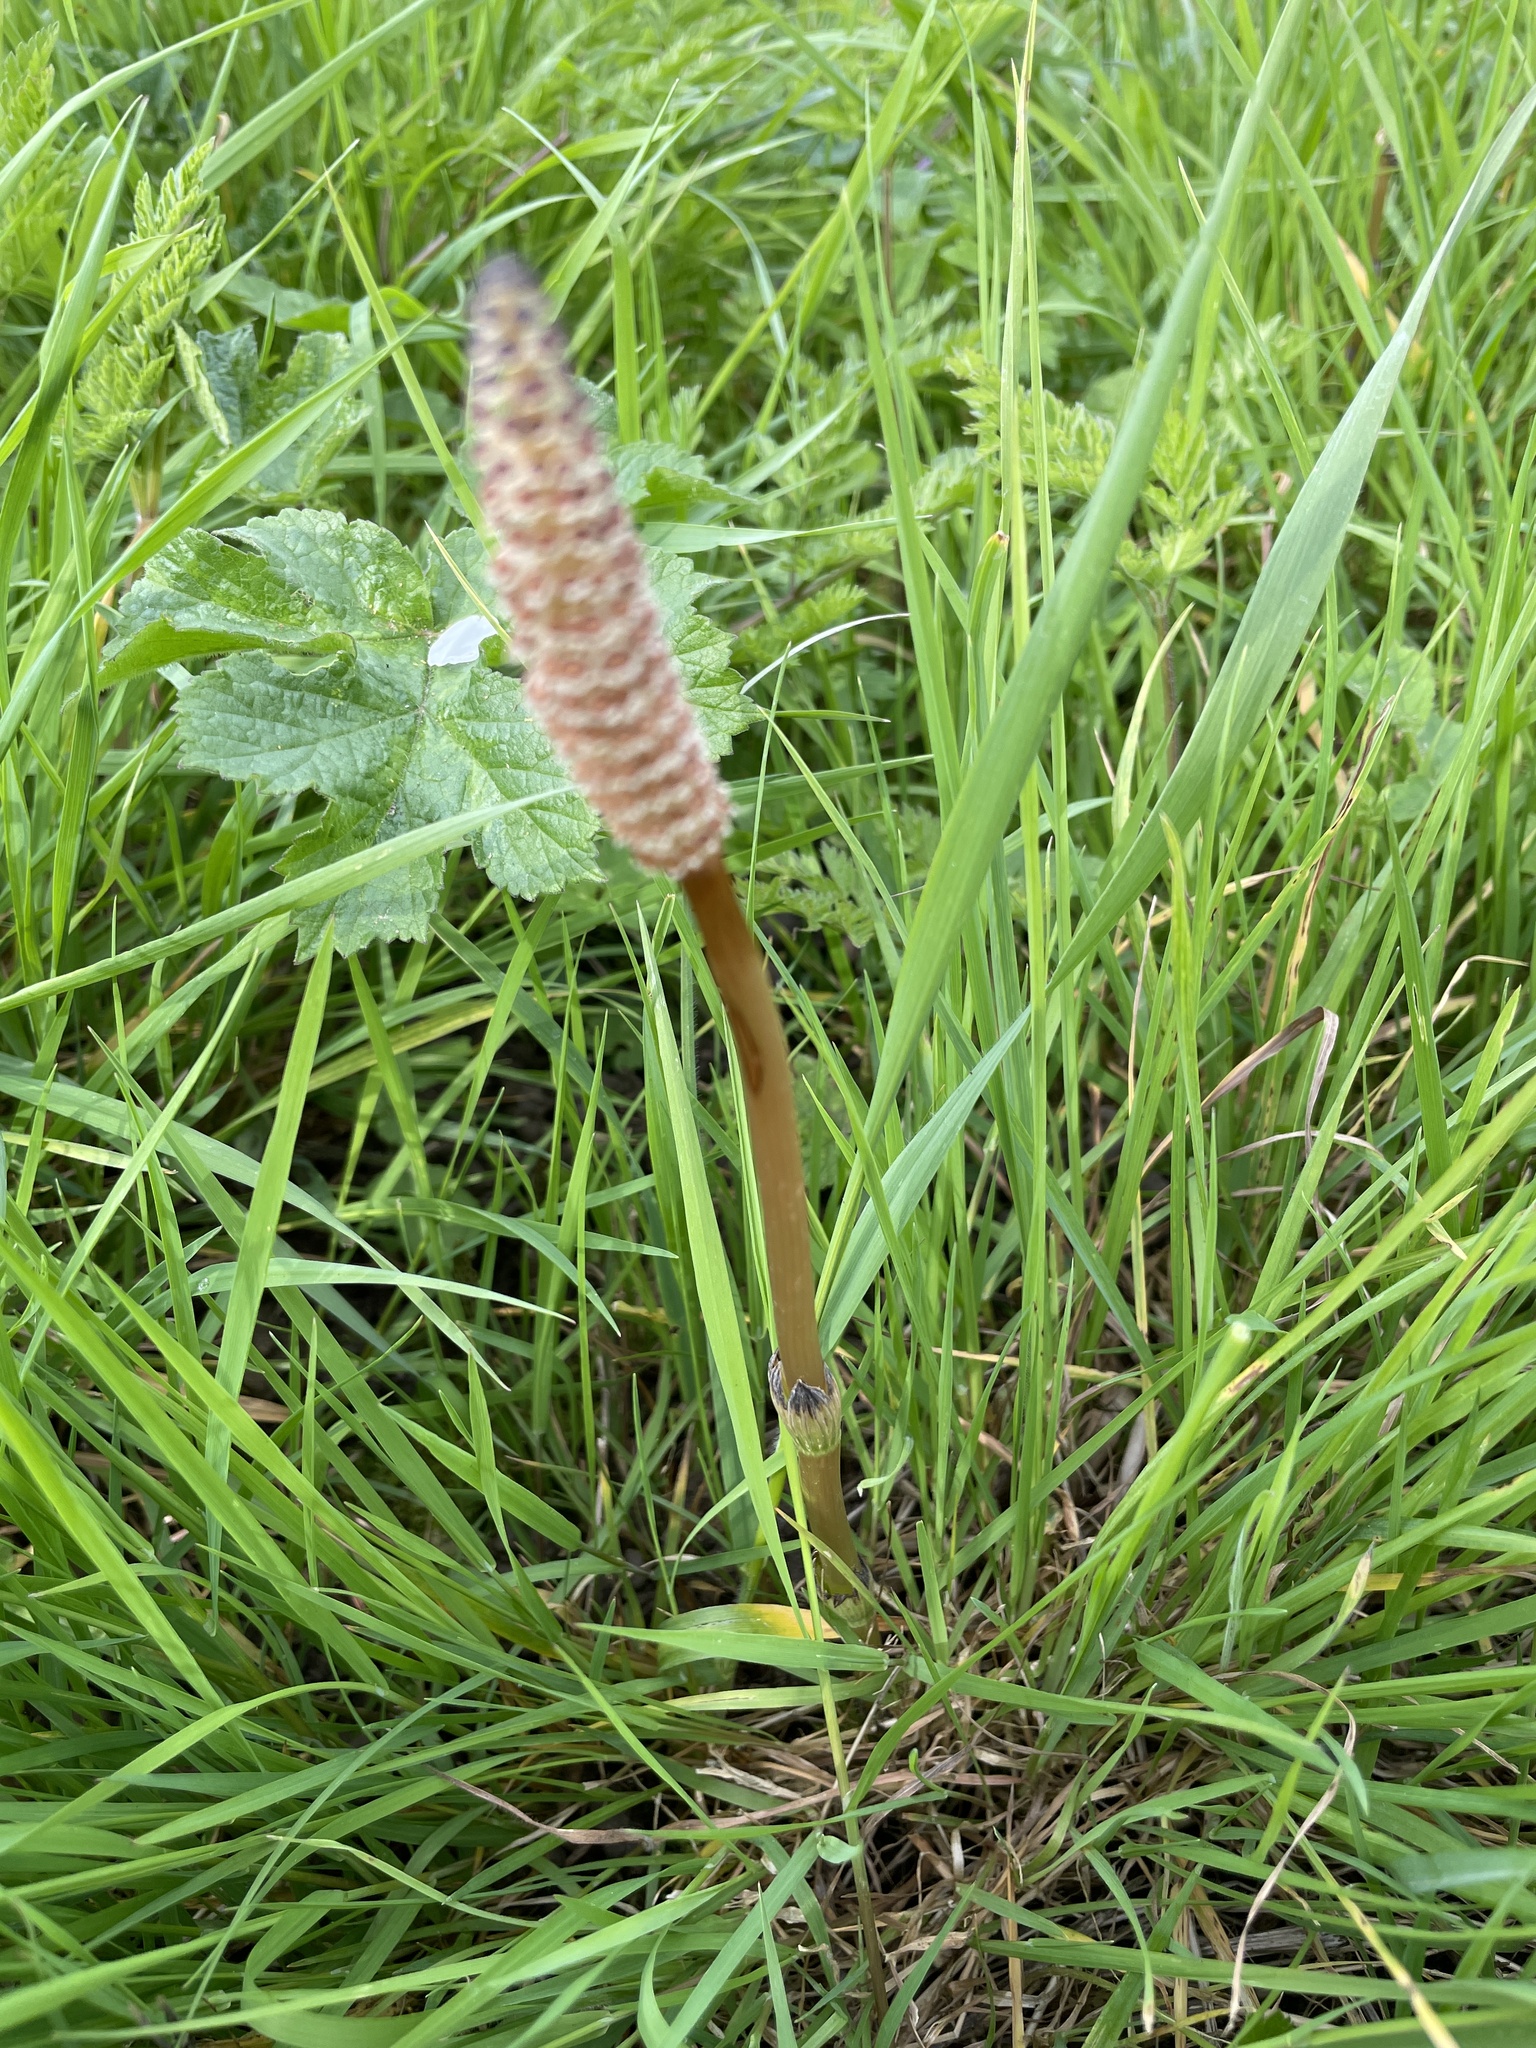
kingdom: Plantae
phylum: Tracheophyta
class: Polypodiopsida
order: Equisetales
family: Equisetaceae
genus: Equisetum
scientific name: Equisetum arvense
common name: Field horsetail
